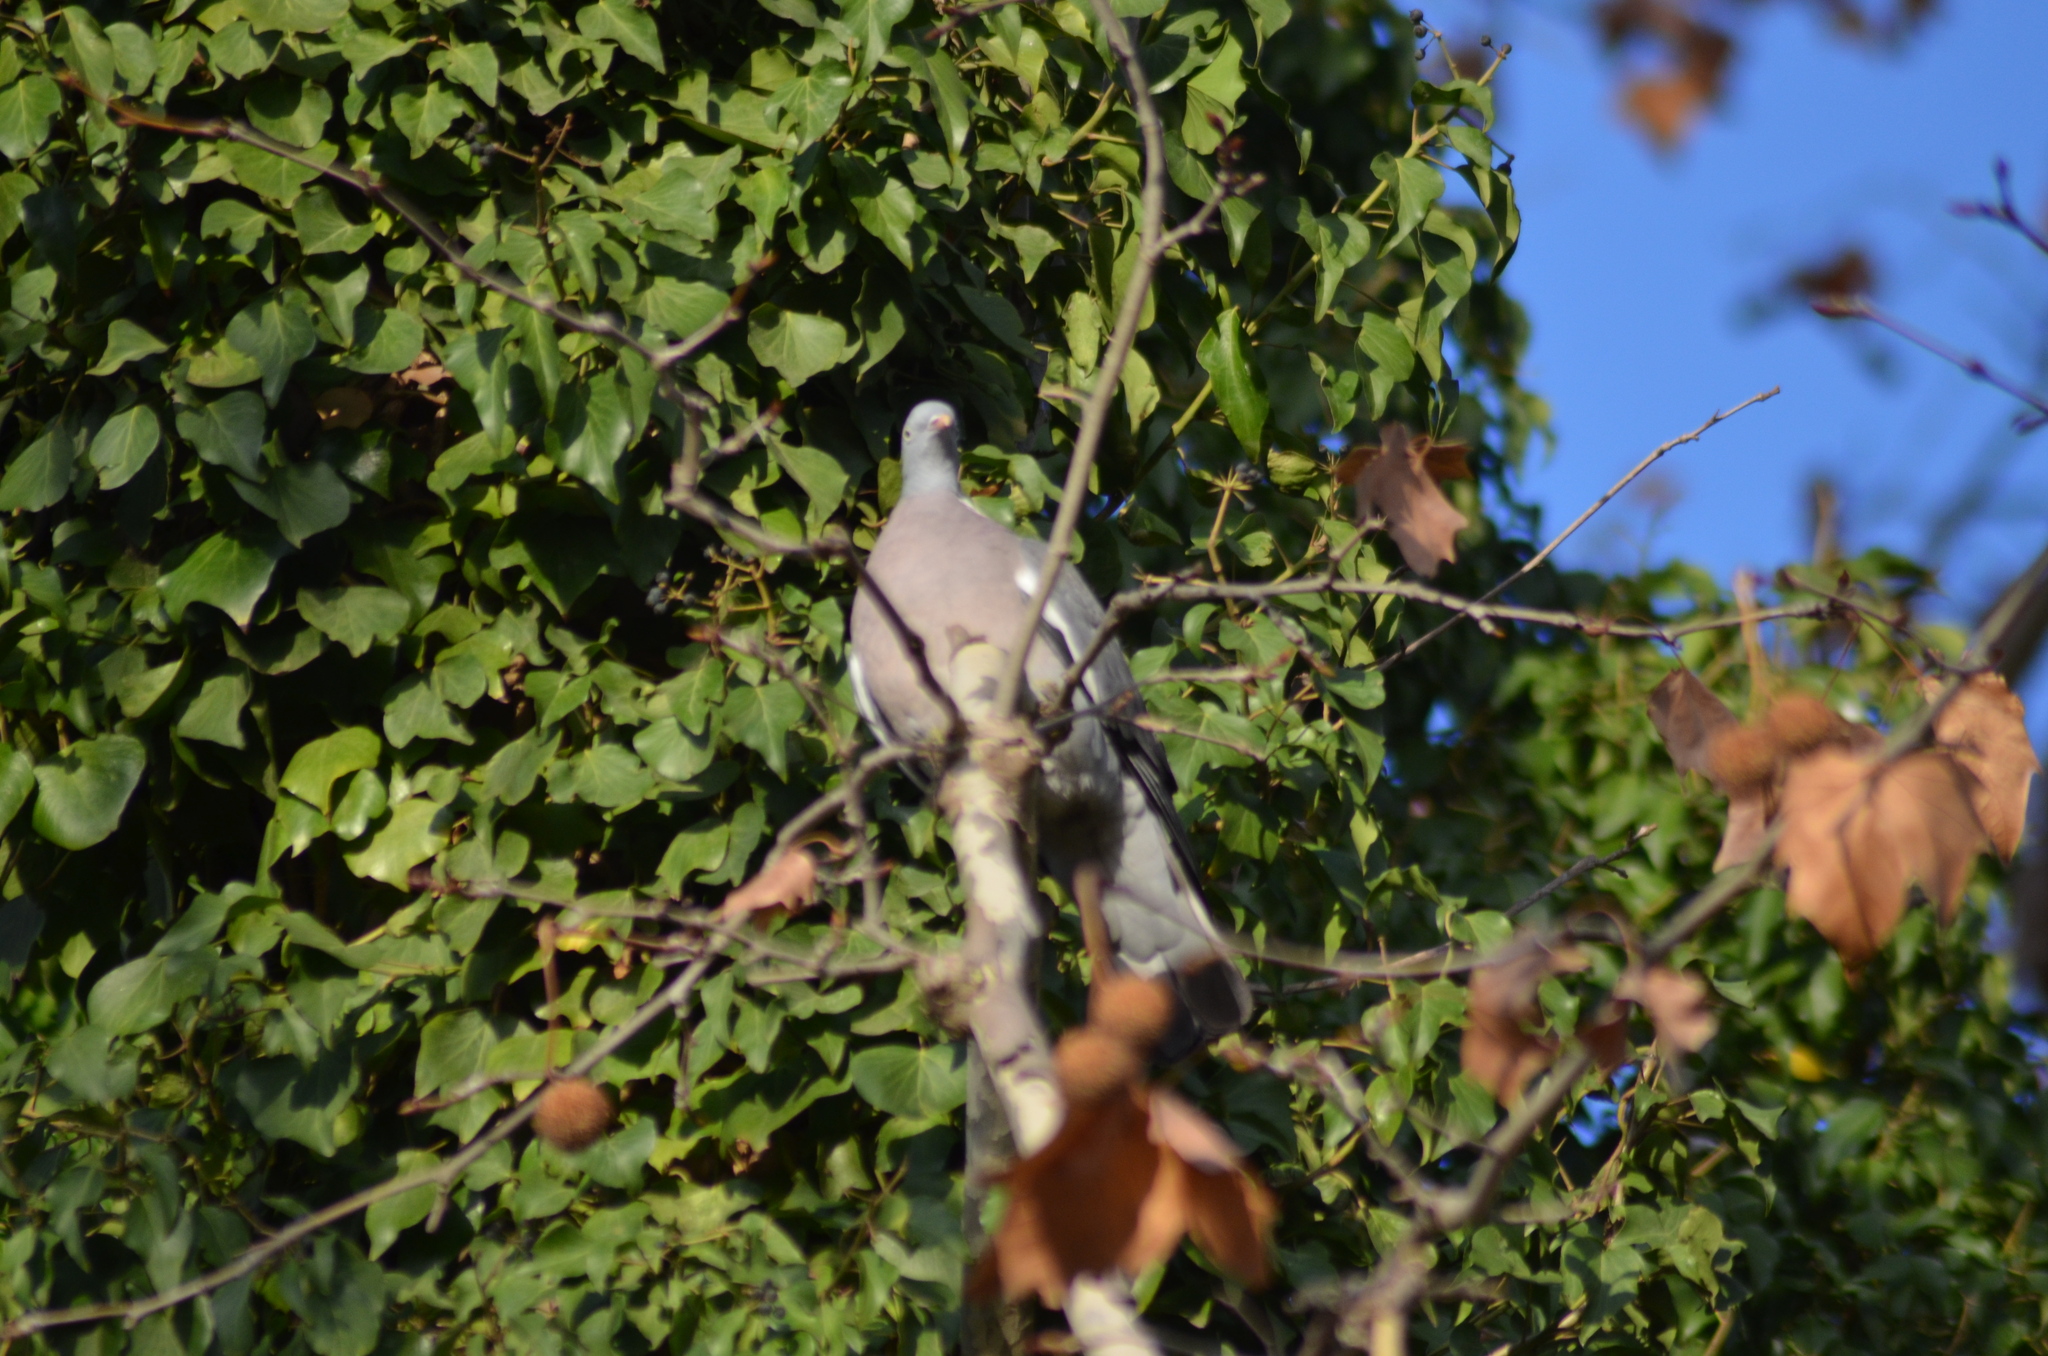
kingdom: Animalia
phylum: Chordata
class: Aves
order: Columbiformes
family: Columbidae
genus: Columba
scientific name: Columba palumbus
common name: Common wood pigeon
